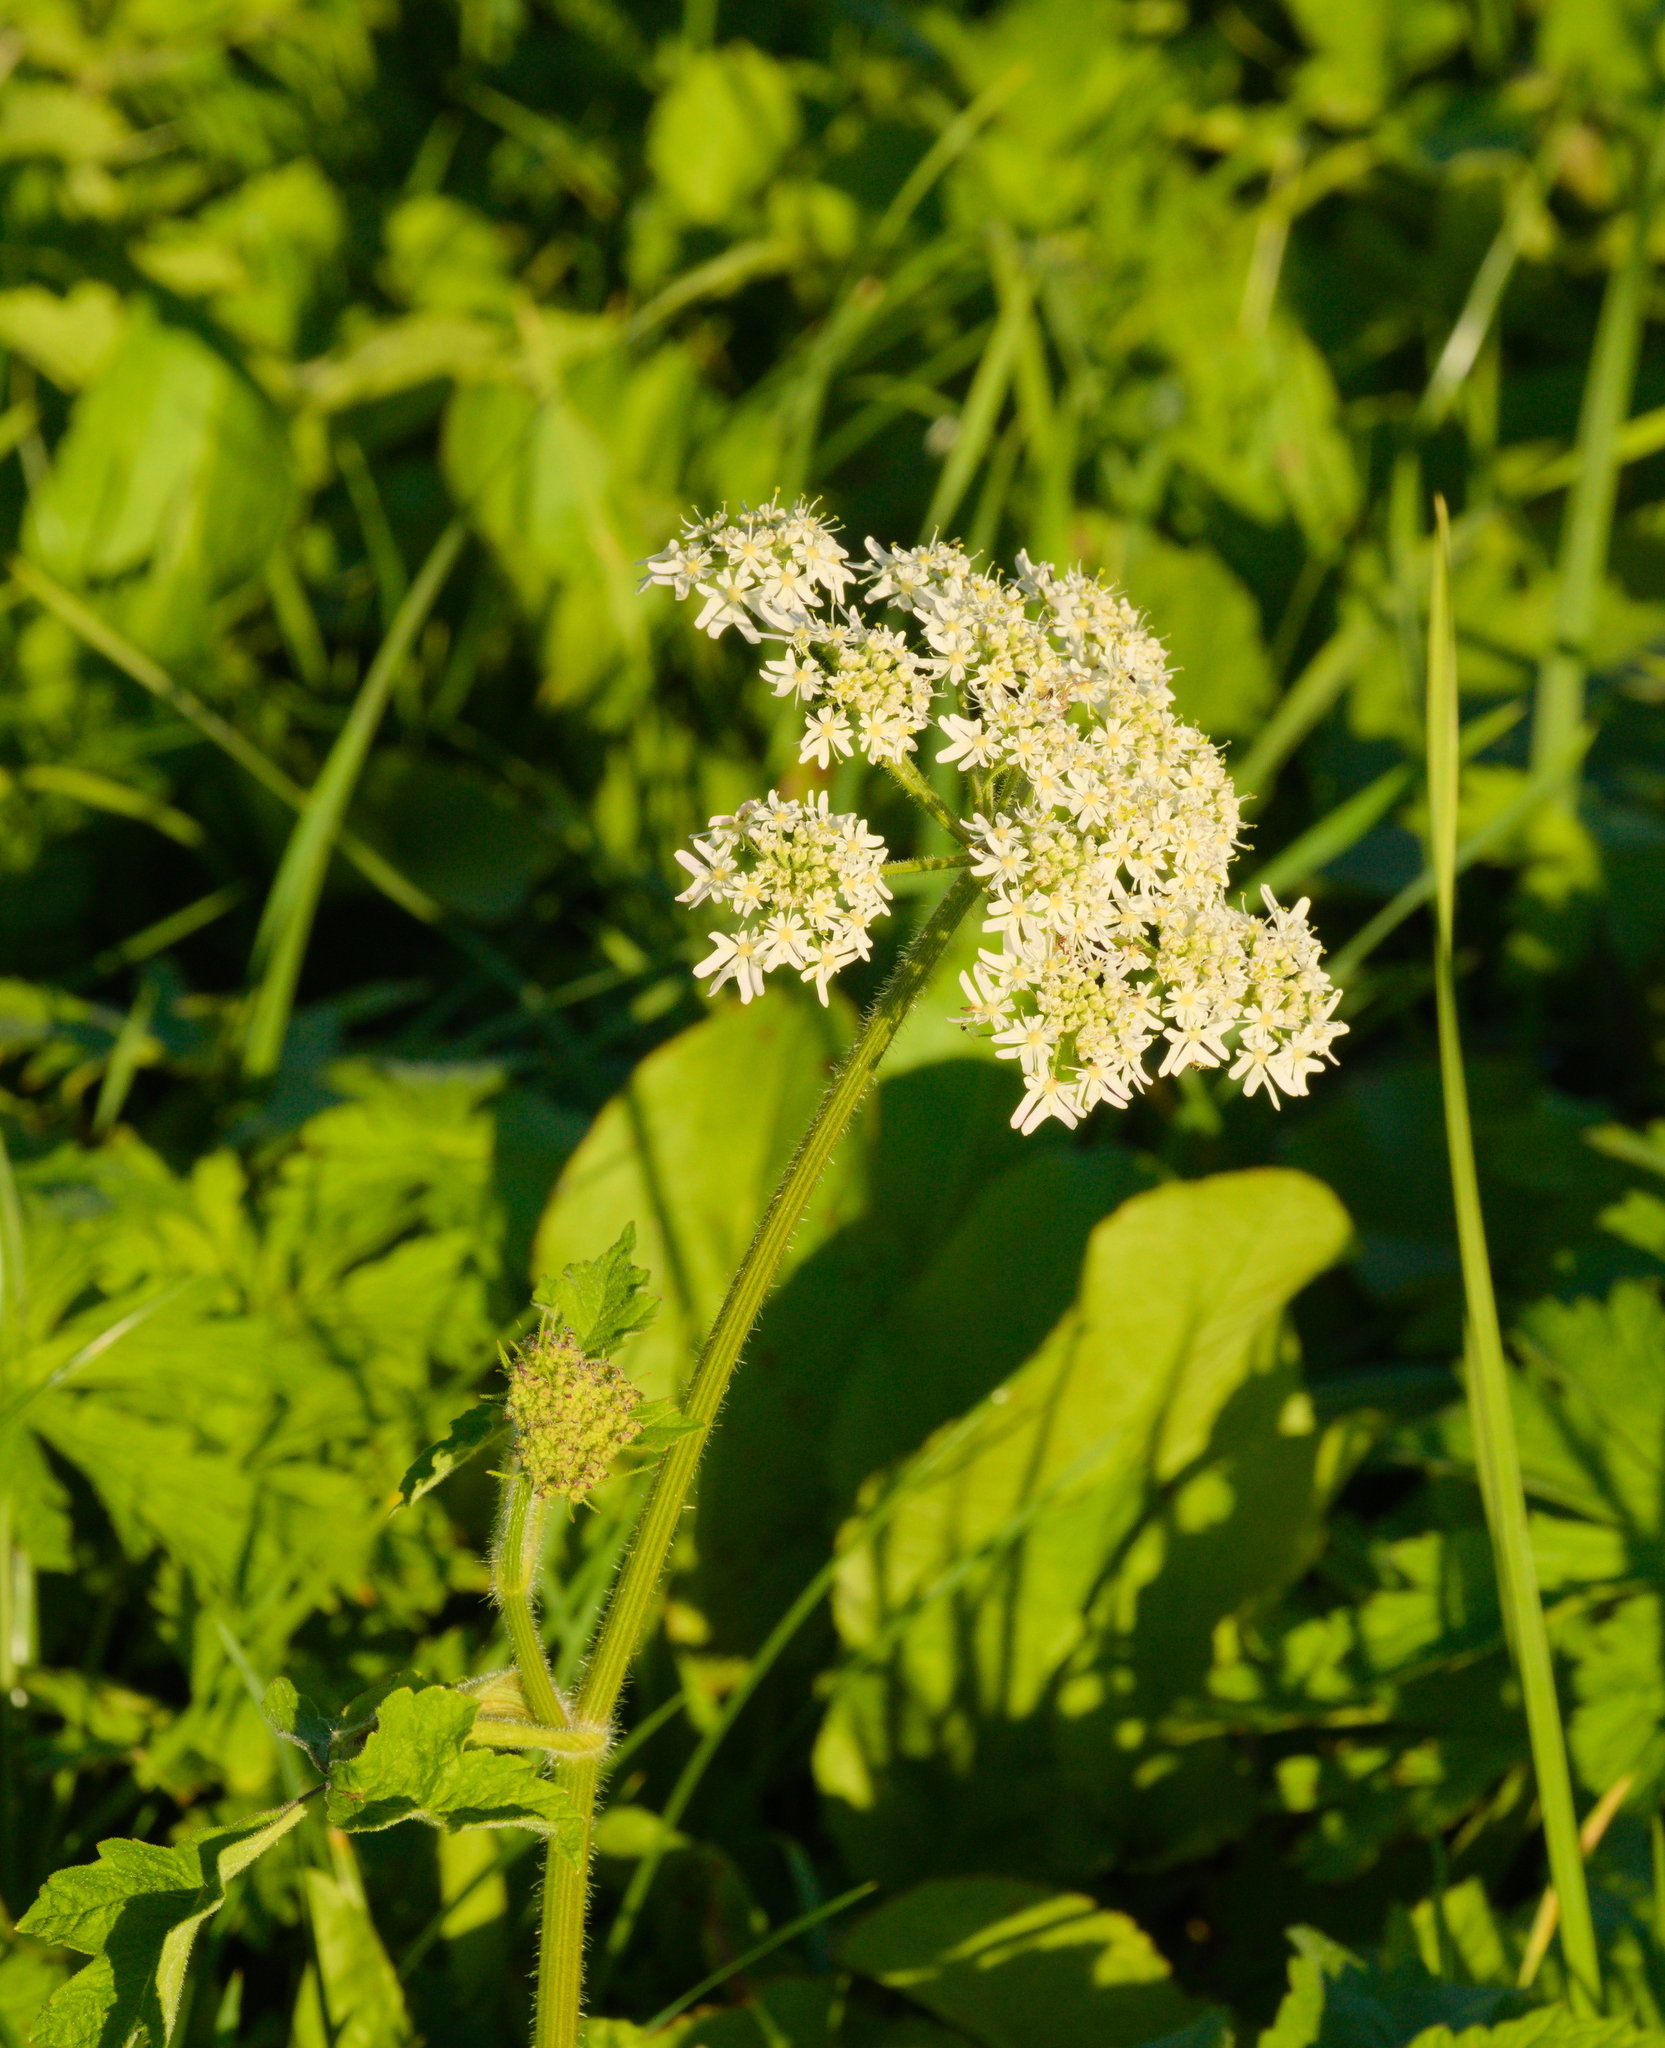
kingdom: Plantae
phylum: Tracheophyta
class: Magnoliopsida
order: Apiales
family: Apiaceae
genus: Heracleum
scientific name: Heracleum sphondylium
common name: Hogweed
